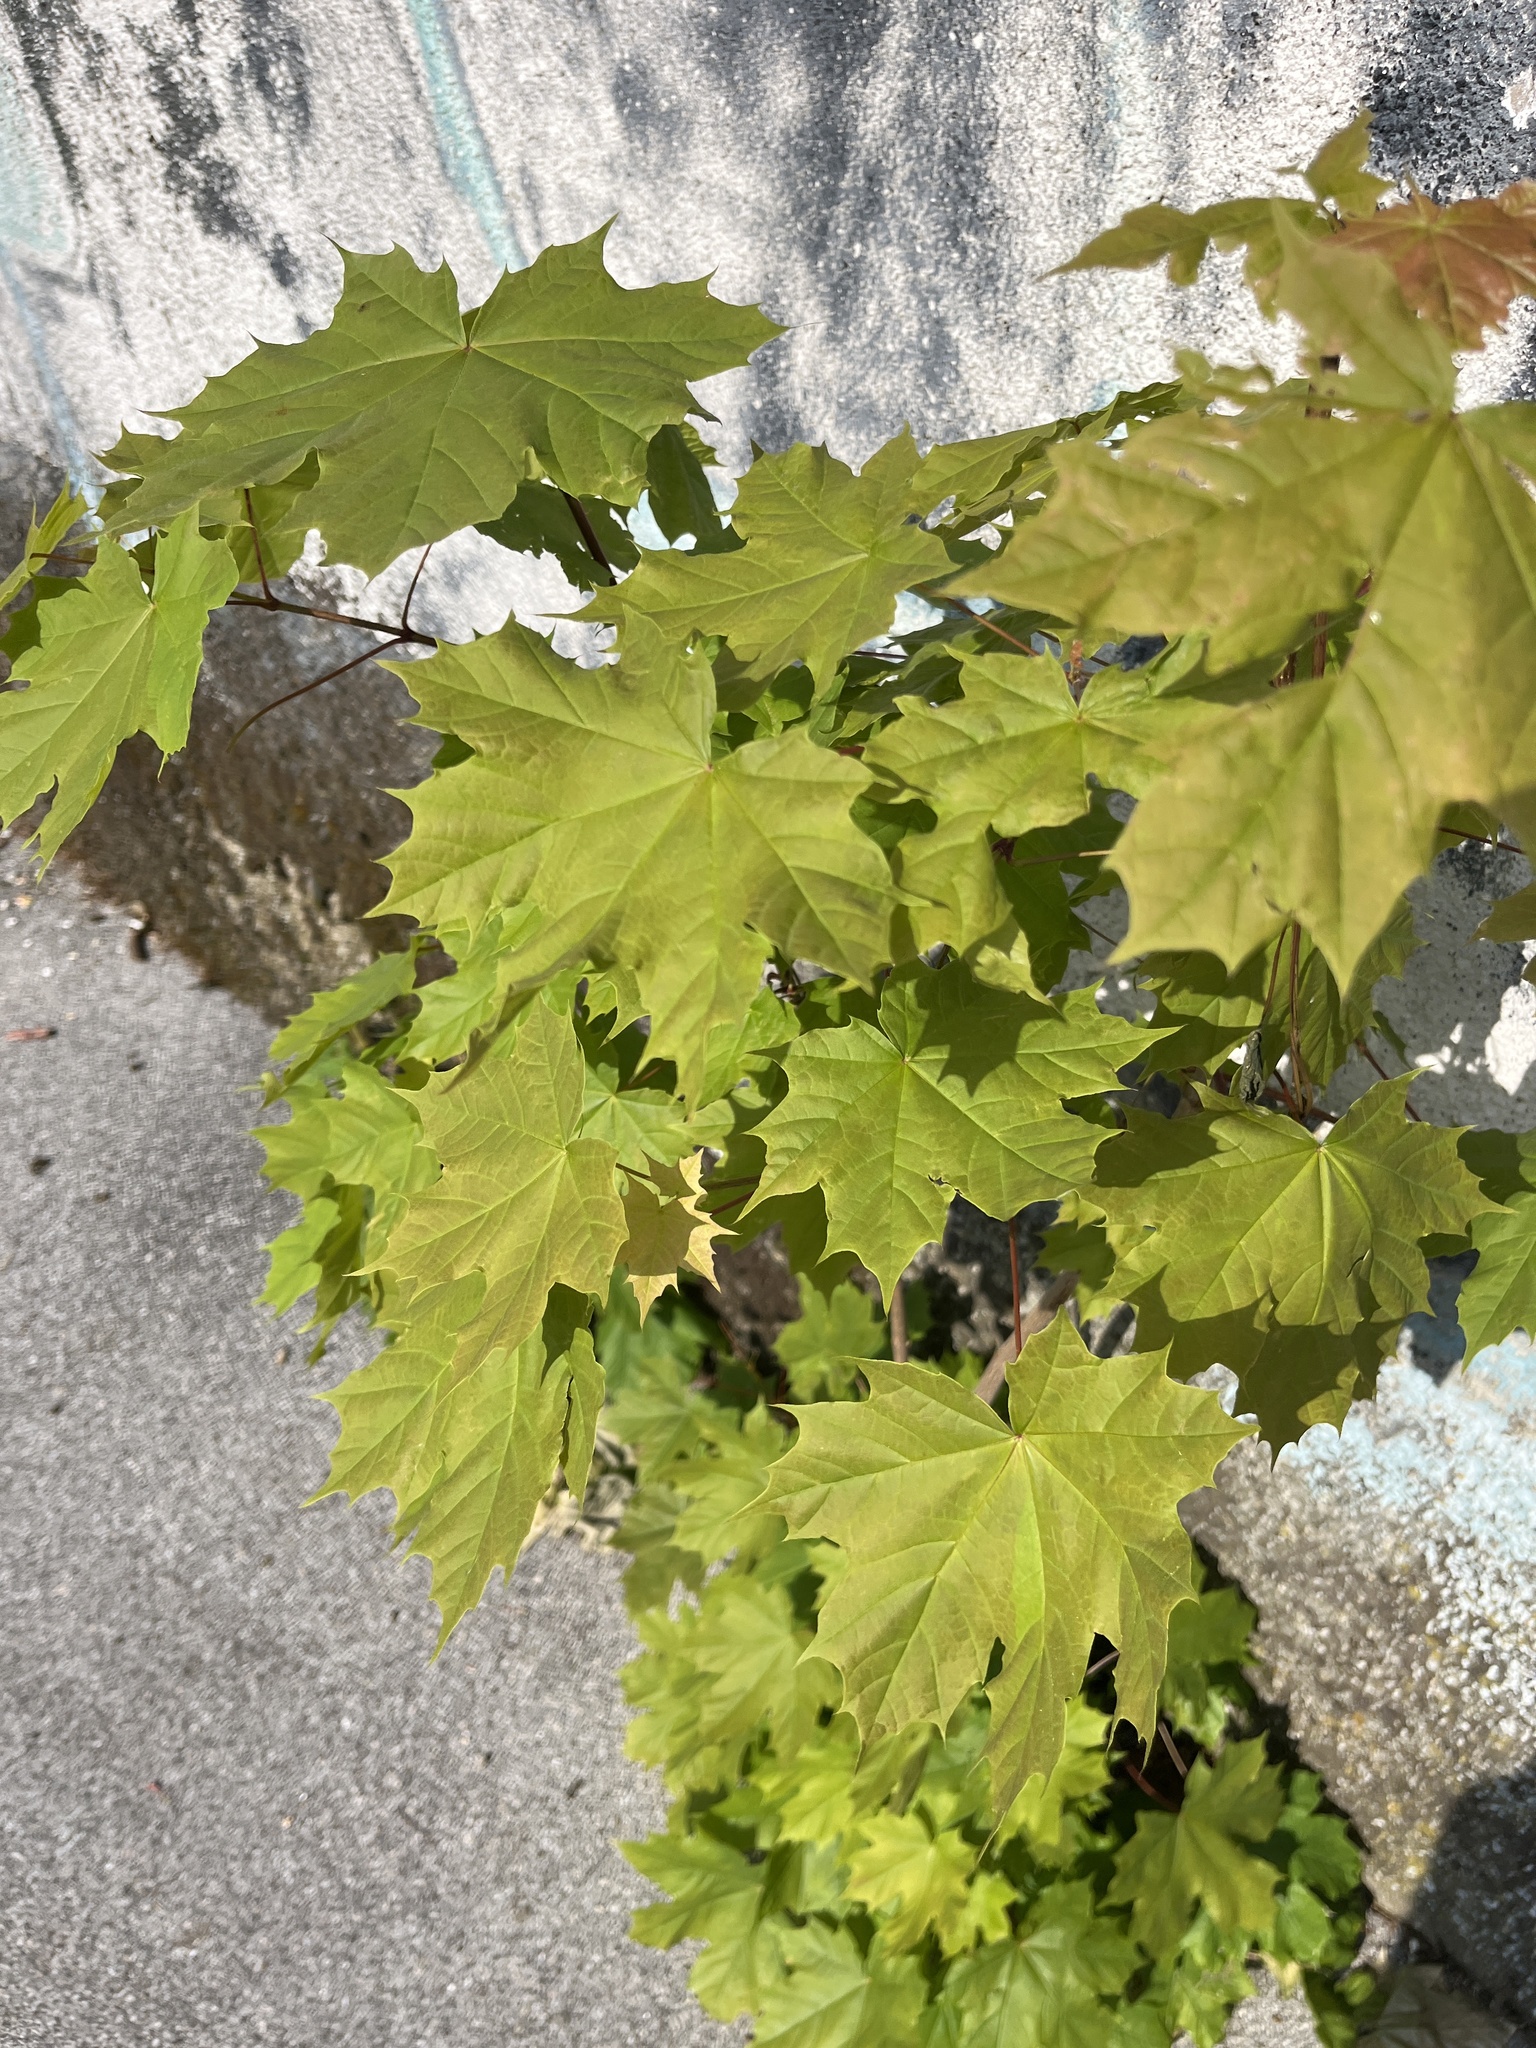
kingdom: Plantae
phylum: Tracheophyta
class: Magnoliopsida
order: Sapindales
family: Sapindaceae
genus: Acer
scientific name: Acer platanoides
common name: Norway maple
